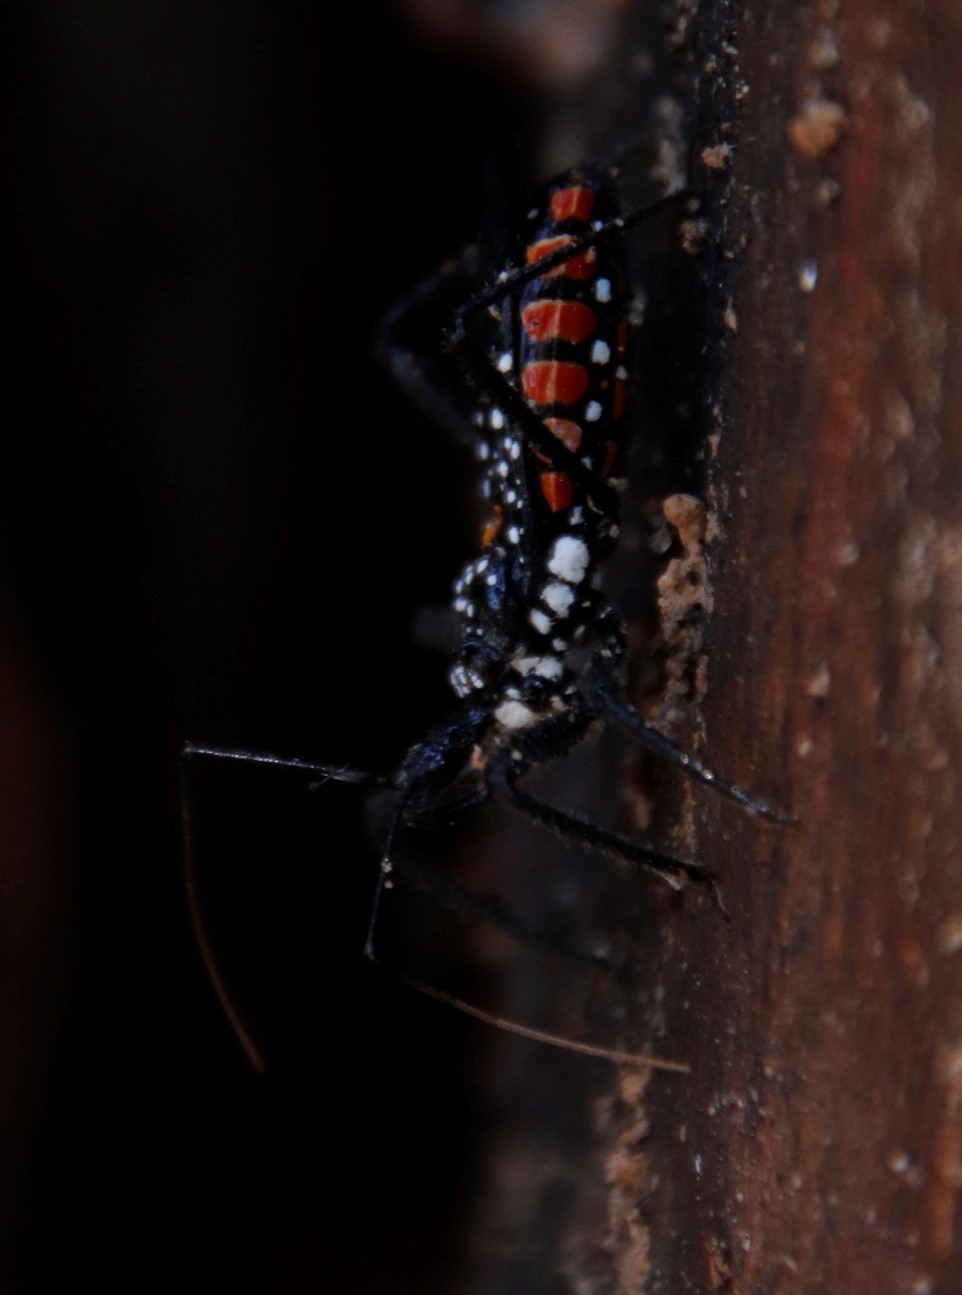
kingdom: Animalia
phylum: Arthropoda
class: Insecta
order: Hemiptera
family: Reduviidae
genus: Rhynocoris
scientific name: Rhynocoris albopunctatus
